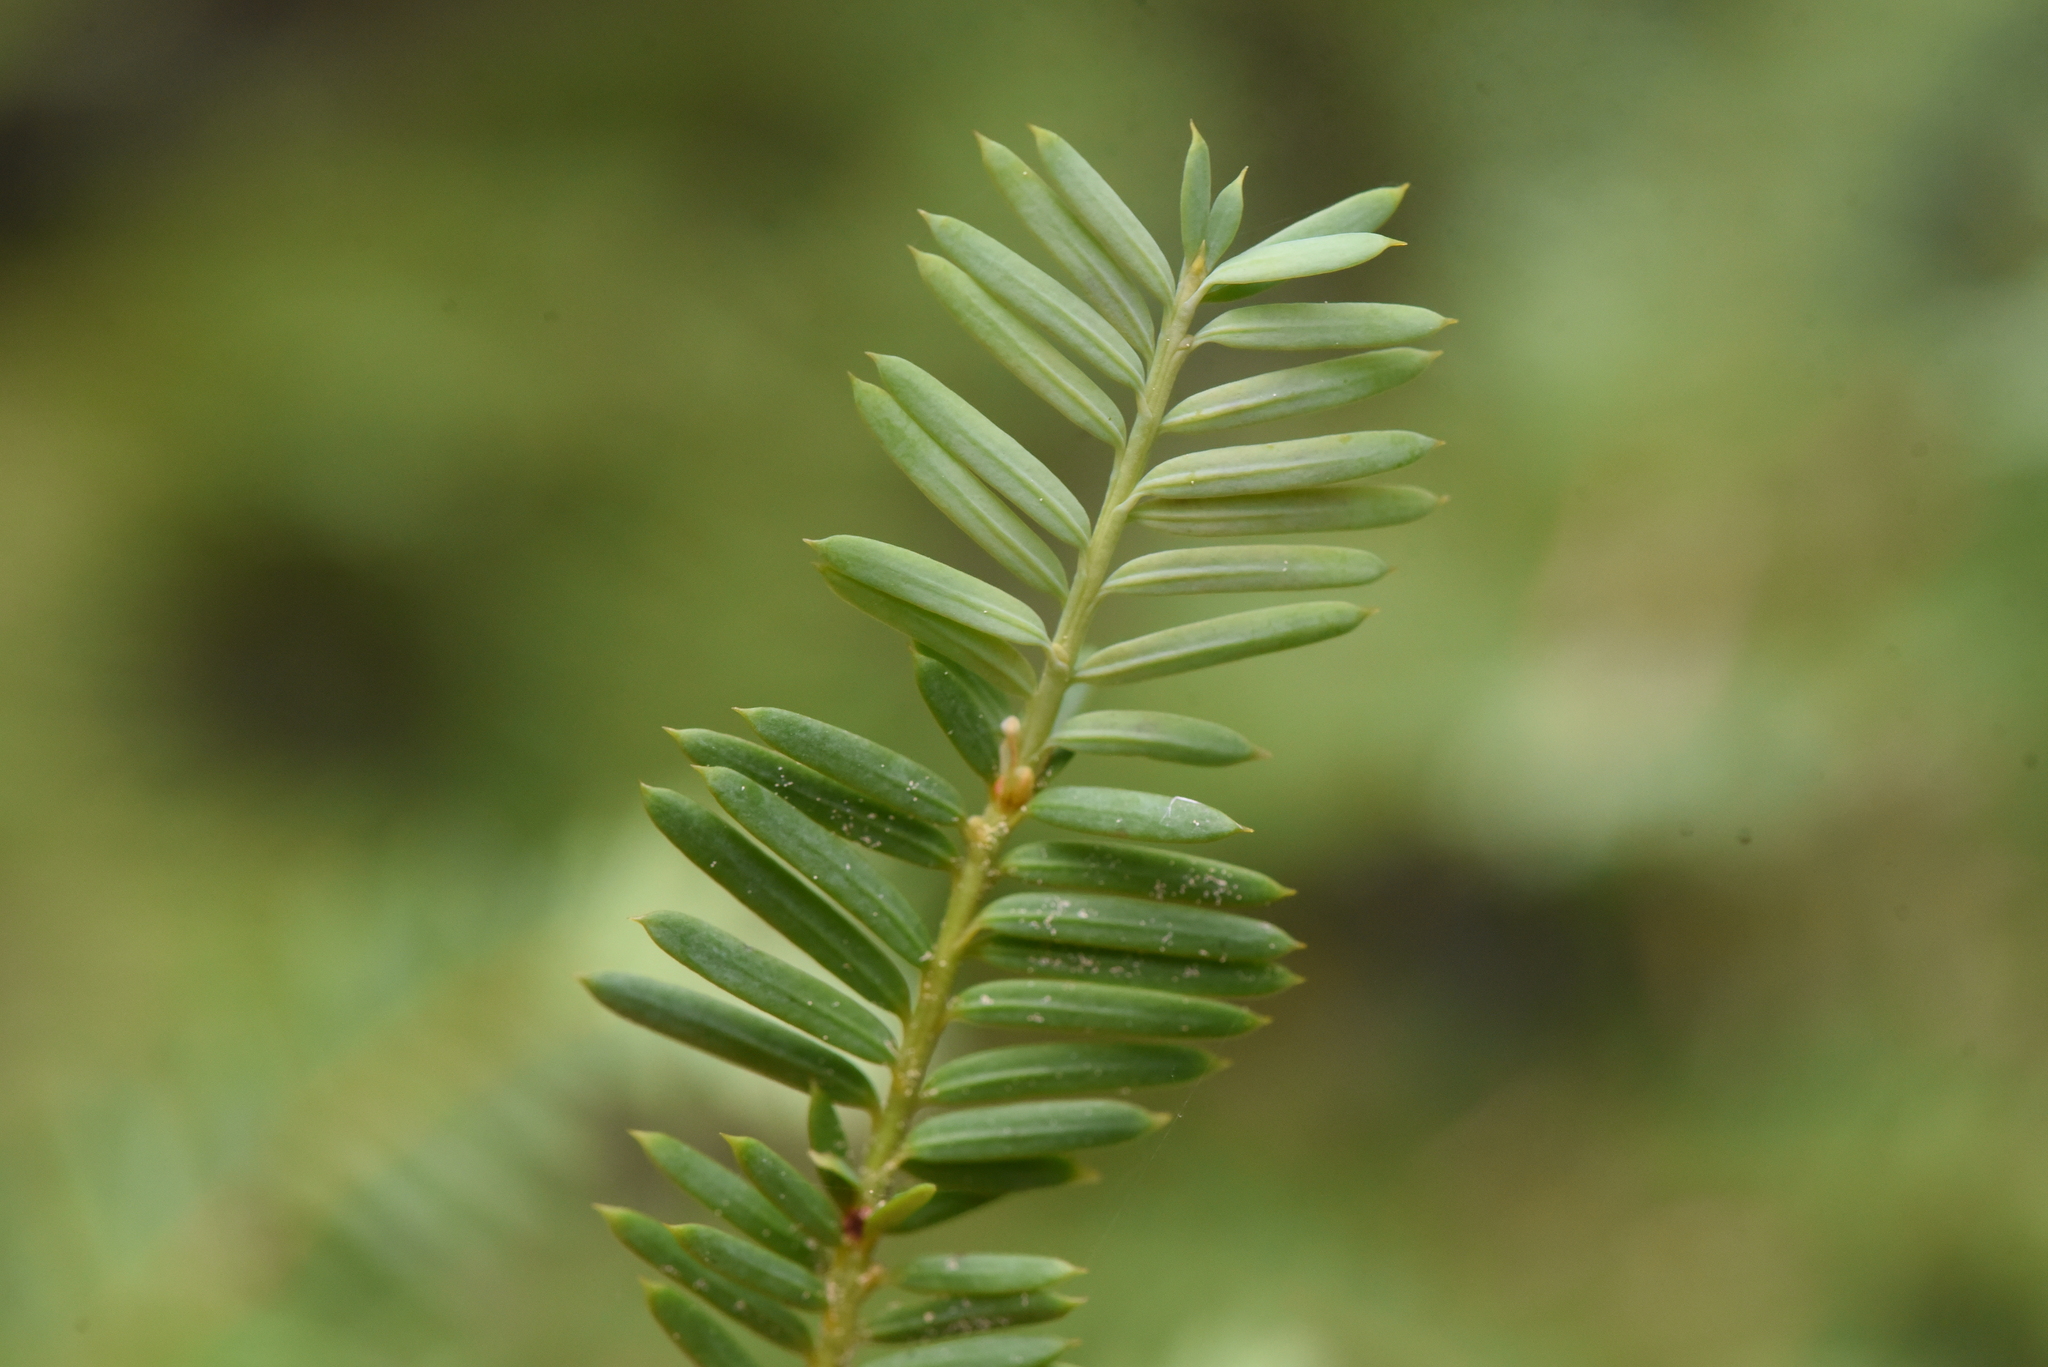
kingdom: Plantae
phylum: Tracheophyta
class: Pinopsida
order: Pinales
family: Taxaceae
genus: Taxus
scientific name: Taxus brevifolia
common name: Pacific yew
